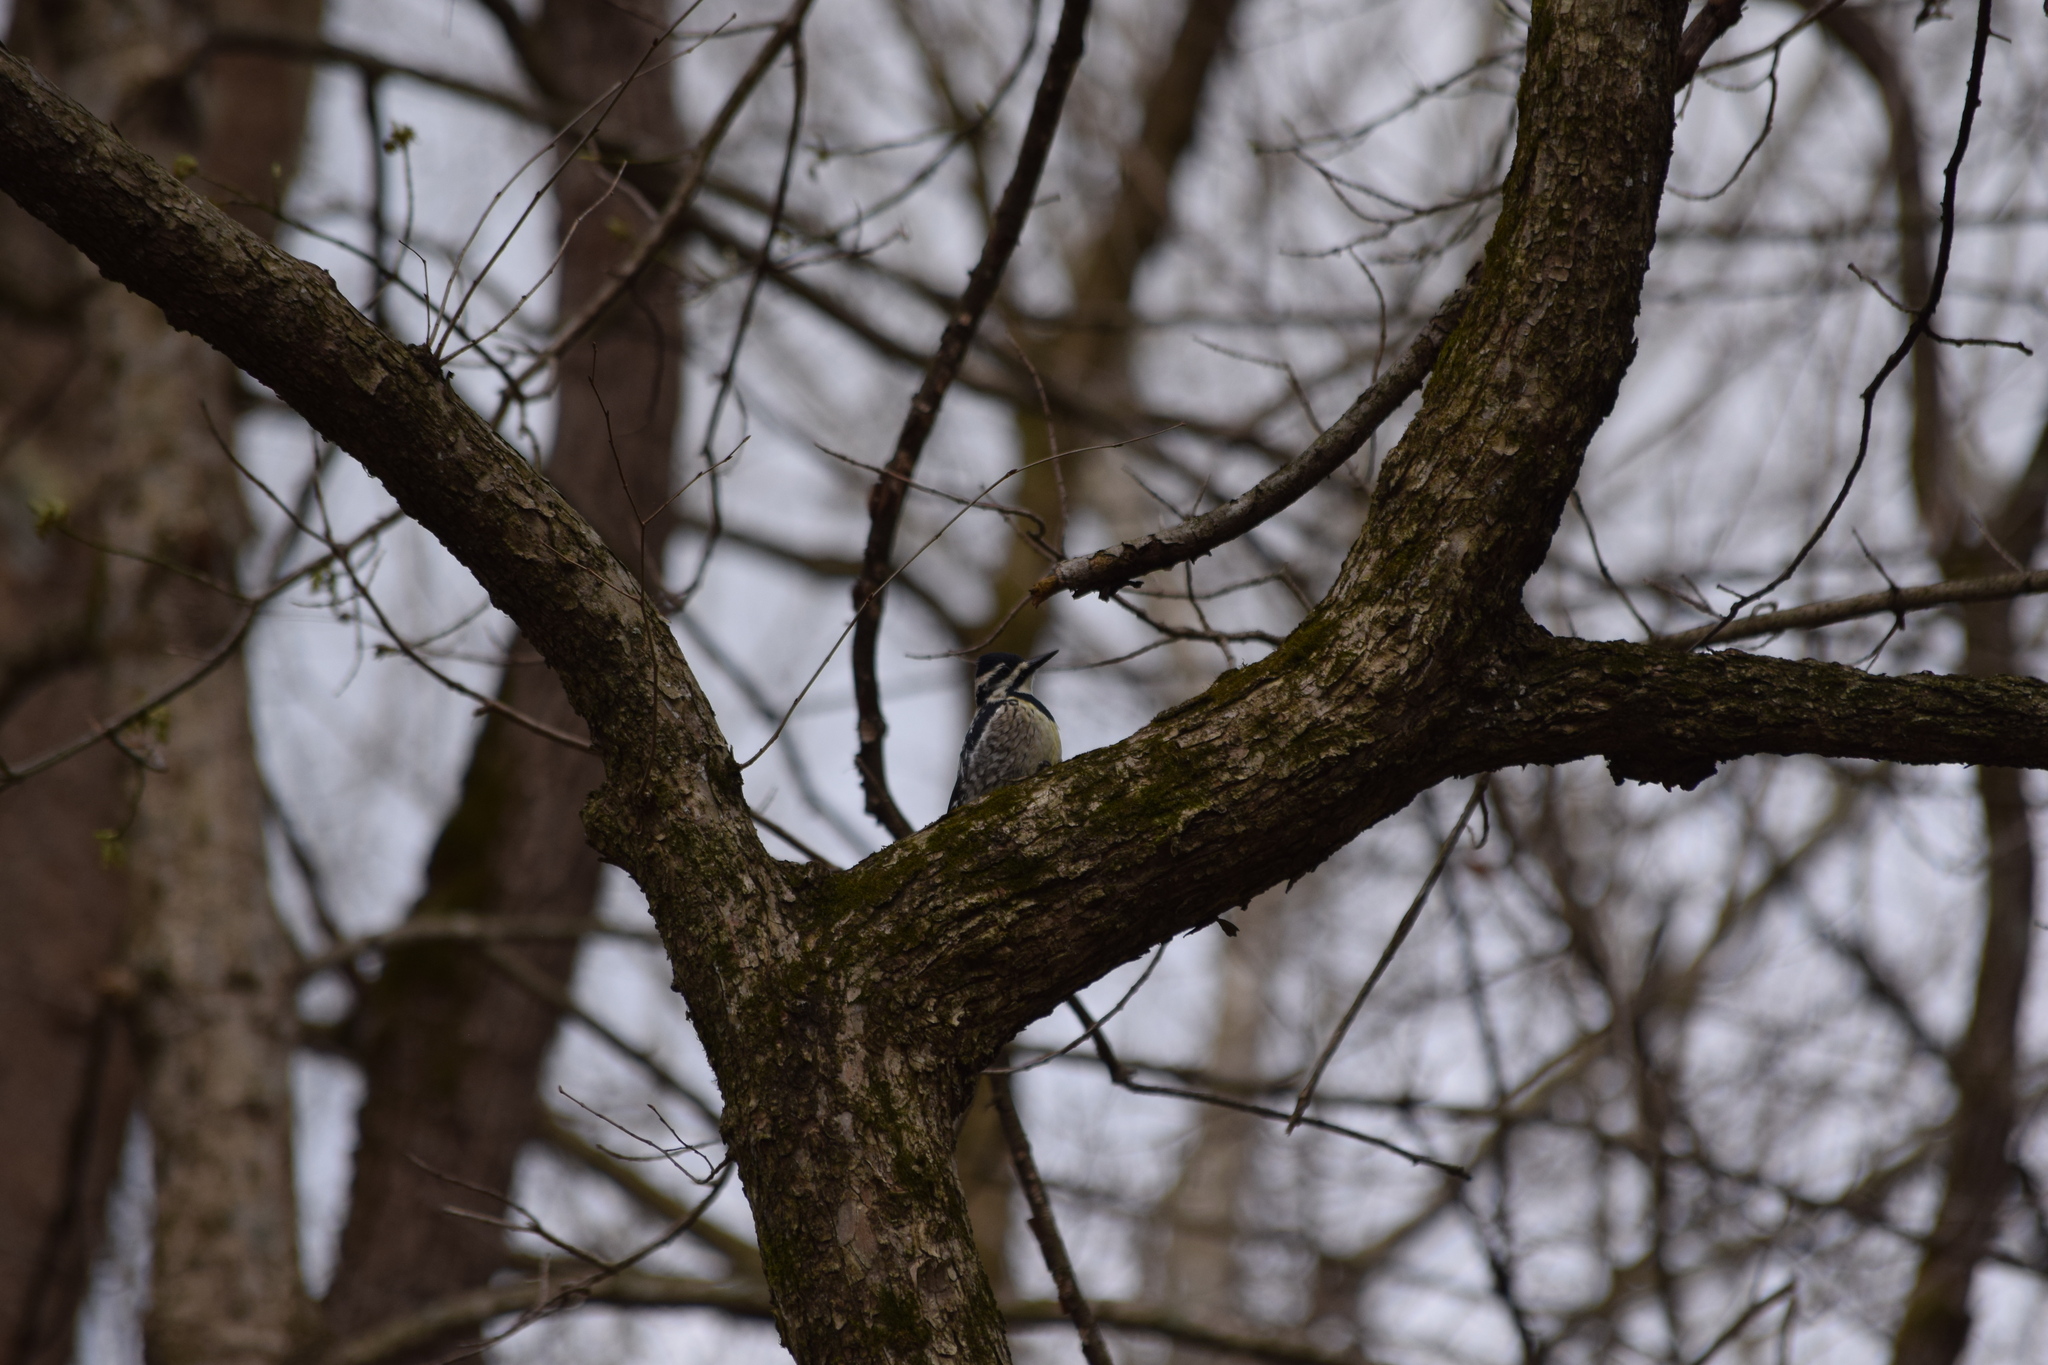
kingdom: Animalia
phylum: Chordata
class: Aves
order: Piciformes
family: Picidae
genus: Sphyrapicus
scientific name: Sphyrapicus varius
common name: Yellow-bellied sapsucker
